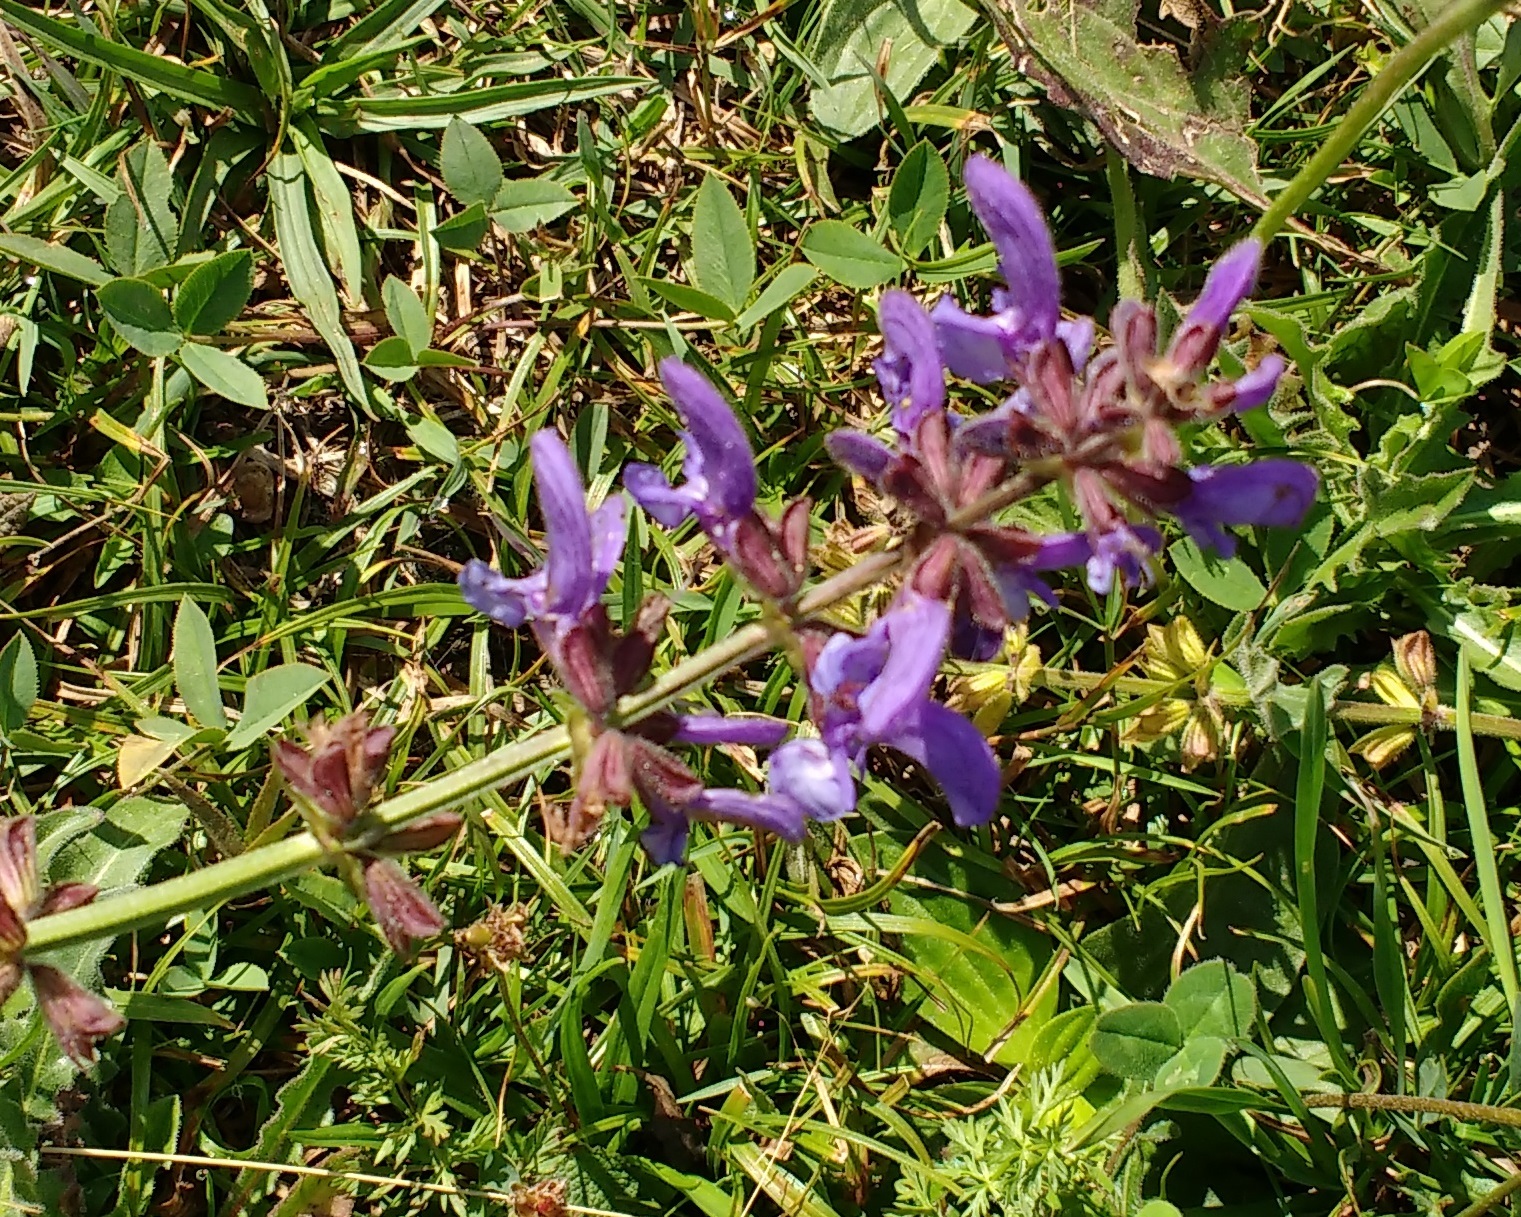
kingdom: Plantae
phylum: Tracheophyta
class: Magnoliopsida
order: Lamiales
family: Lamiaceae
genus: Salvia
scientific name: Salvia pratensis
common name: Meadow sage
